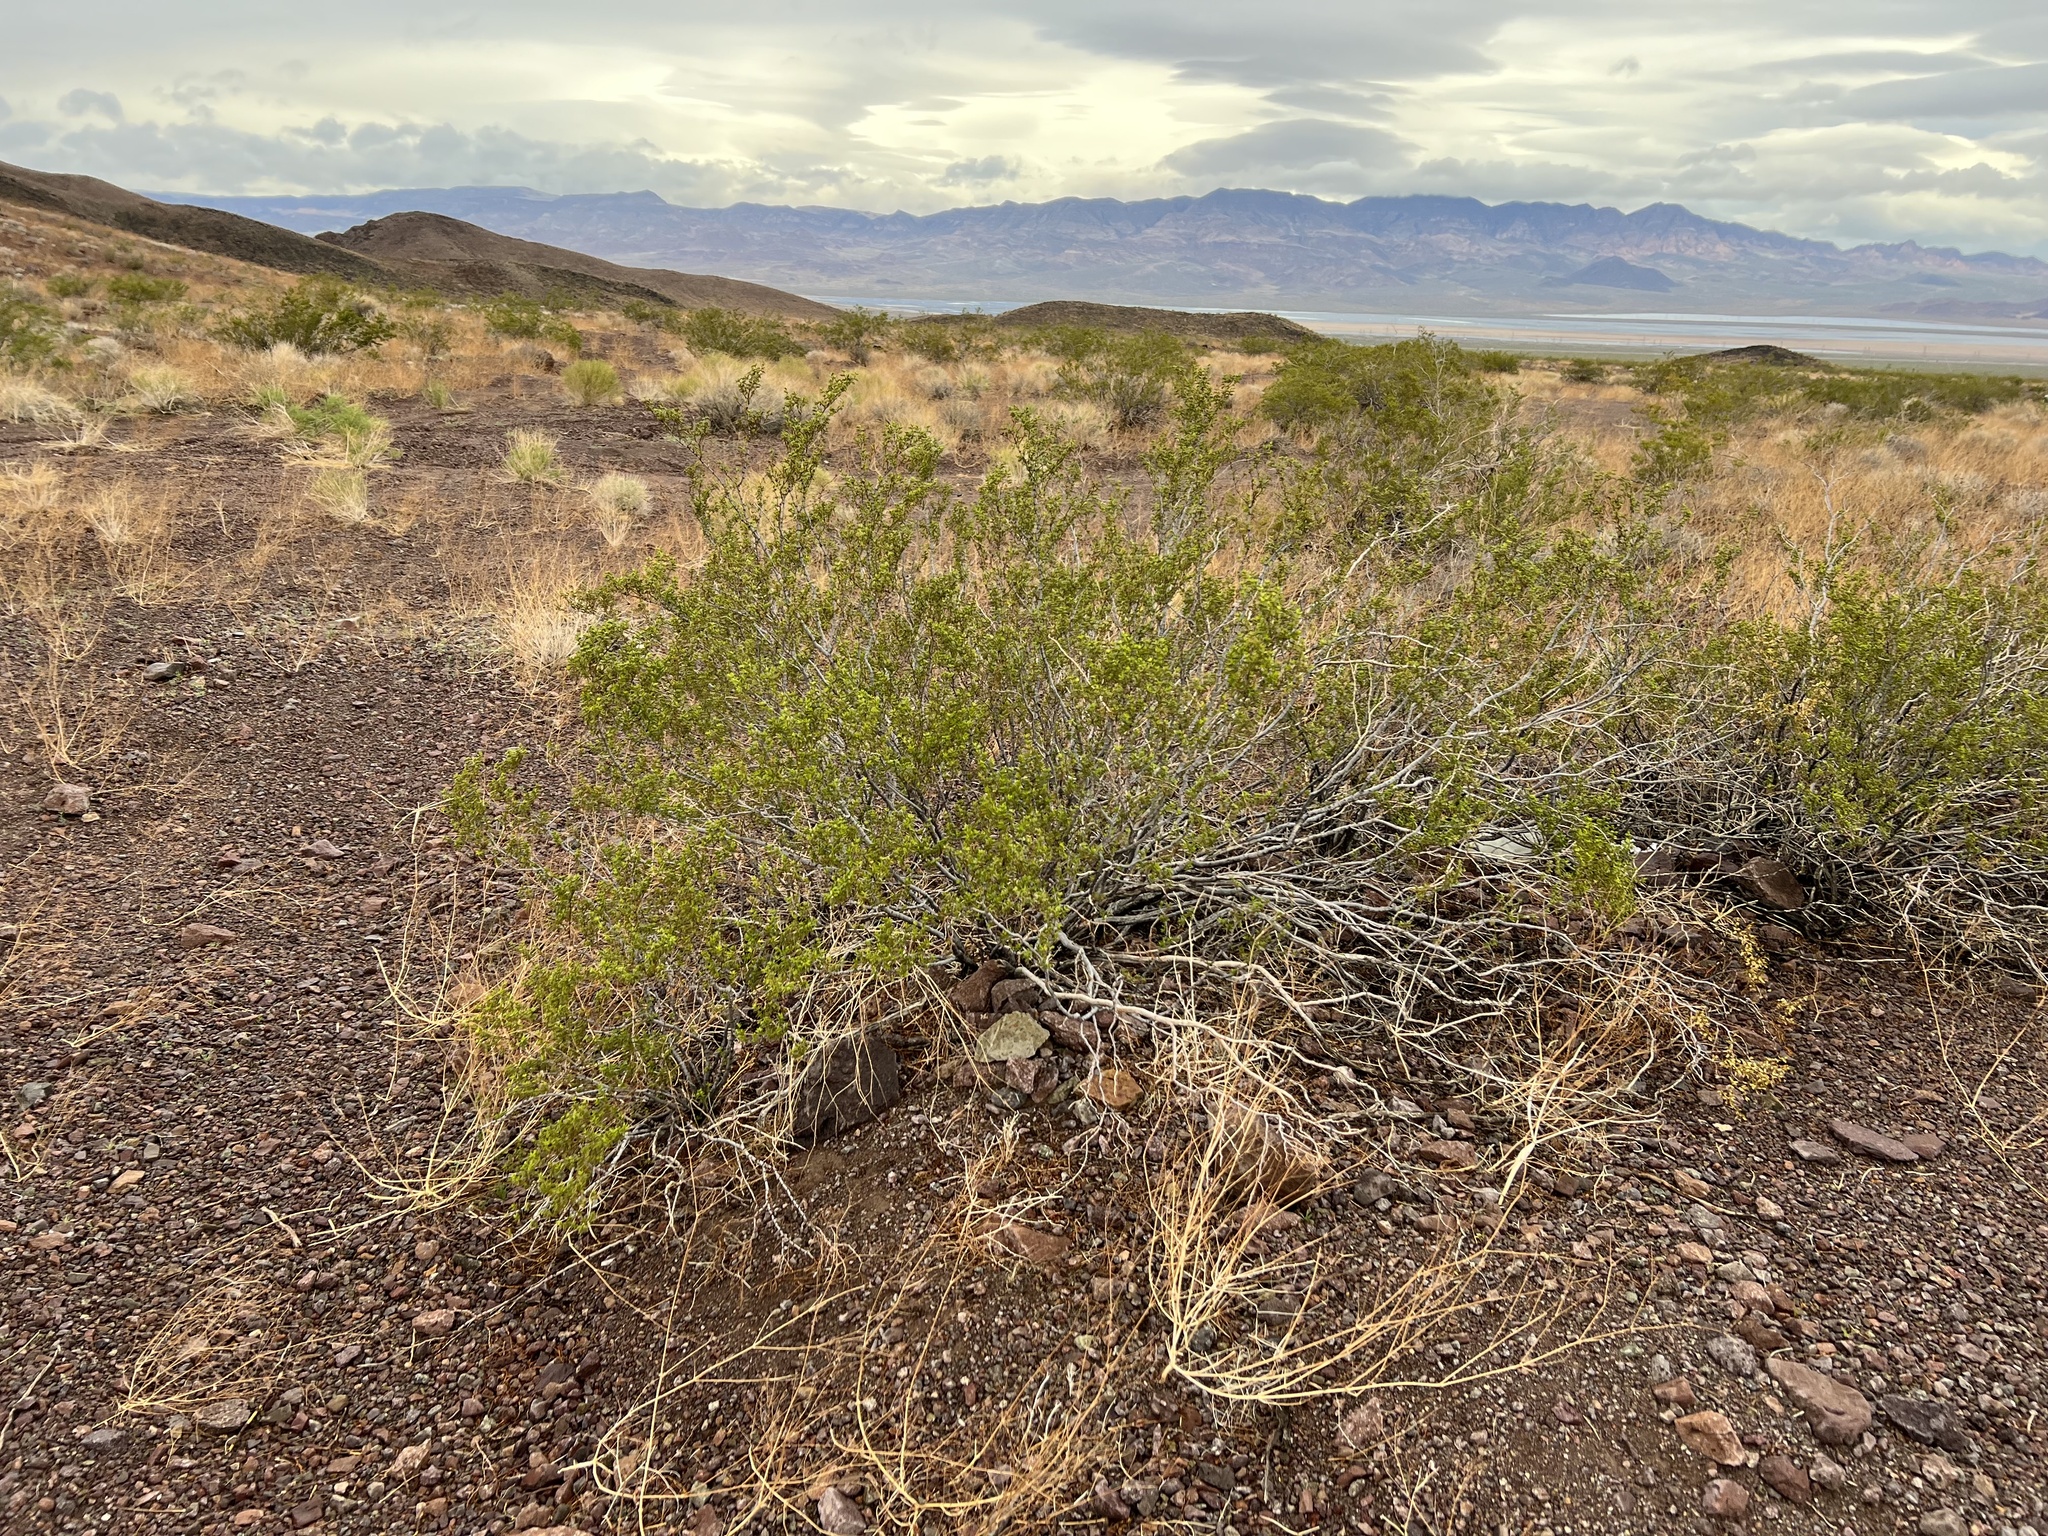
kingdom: Plantae
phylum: Tracheophyta
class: Magnoliopsida
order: Zygophyllales
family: Zygophyllaceae
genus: Larrea
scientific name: Larrea tridentata
